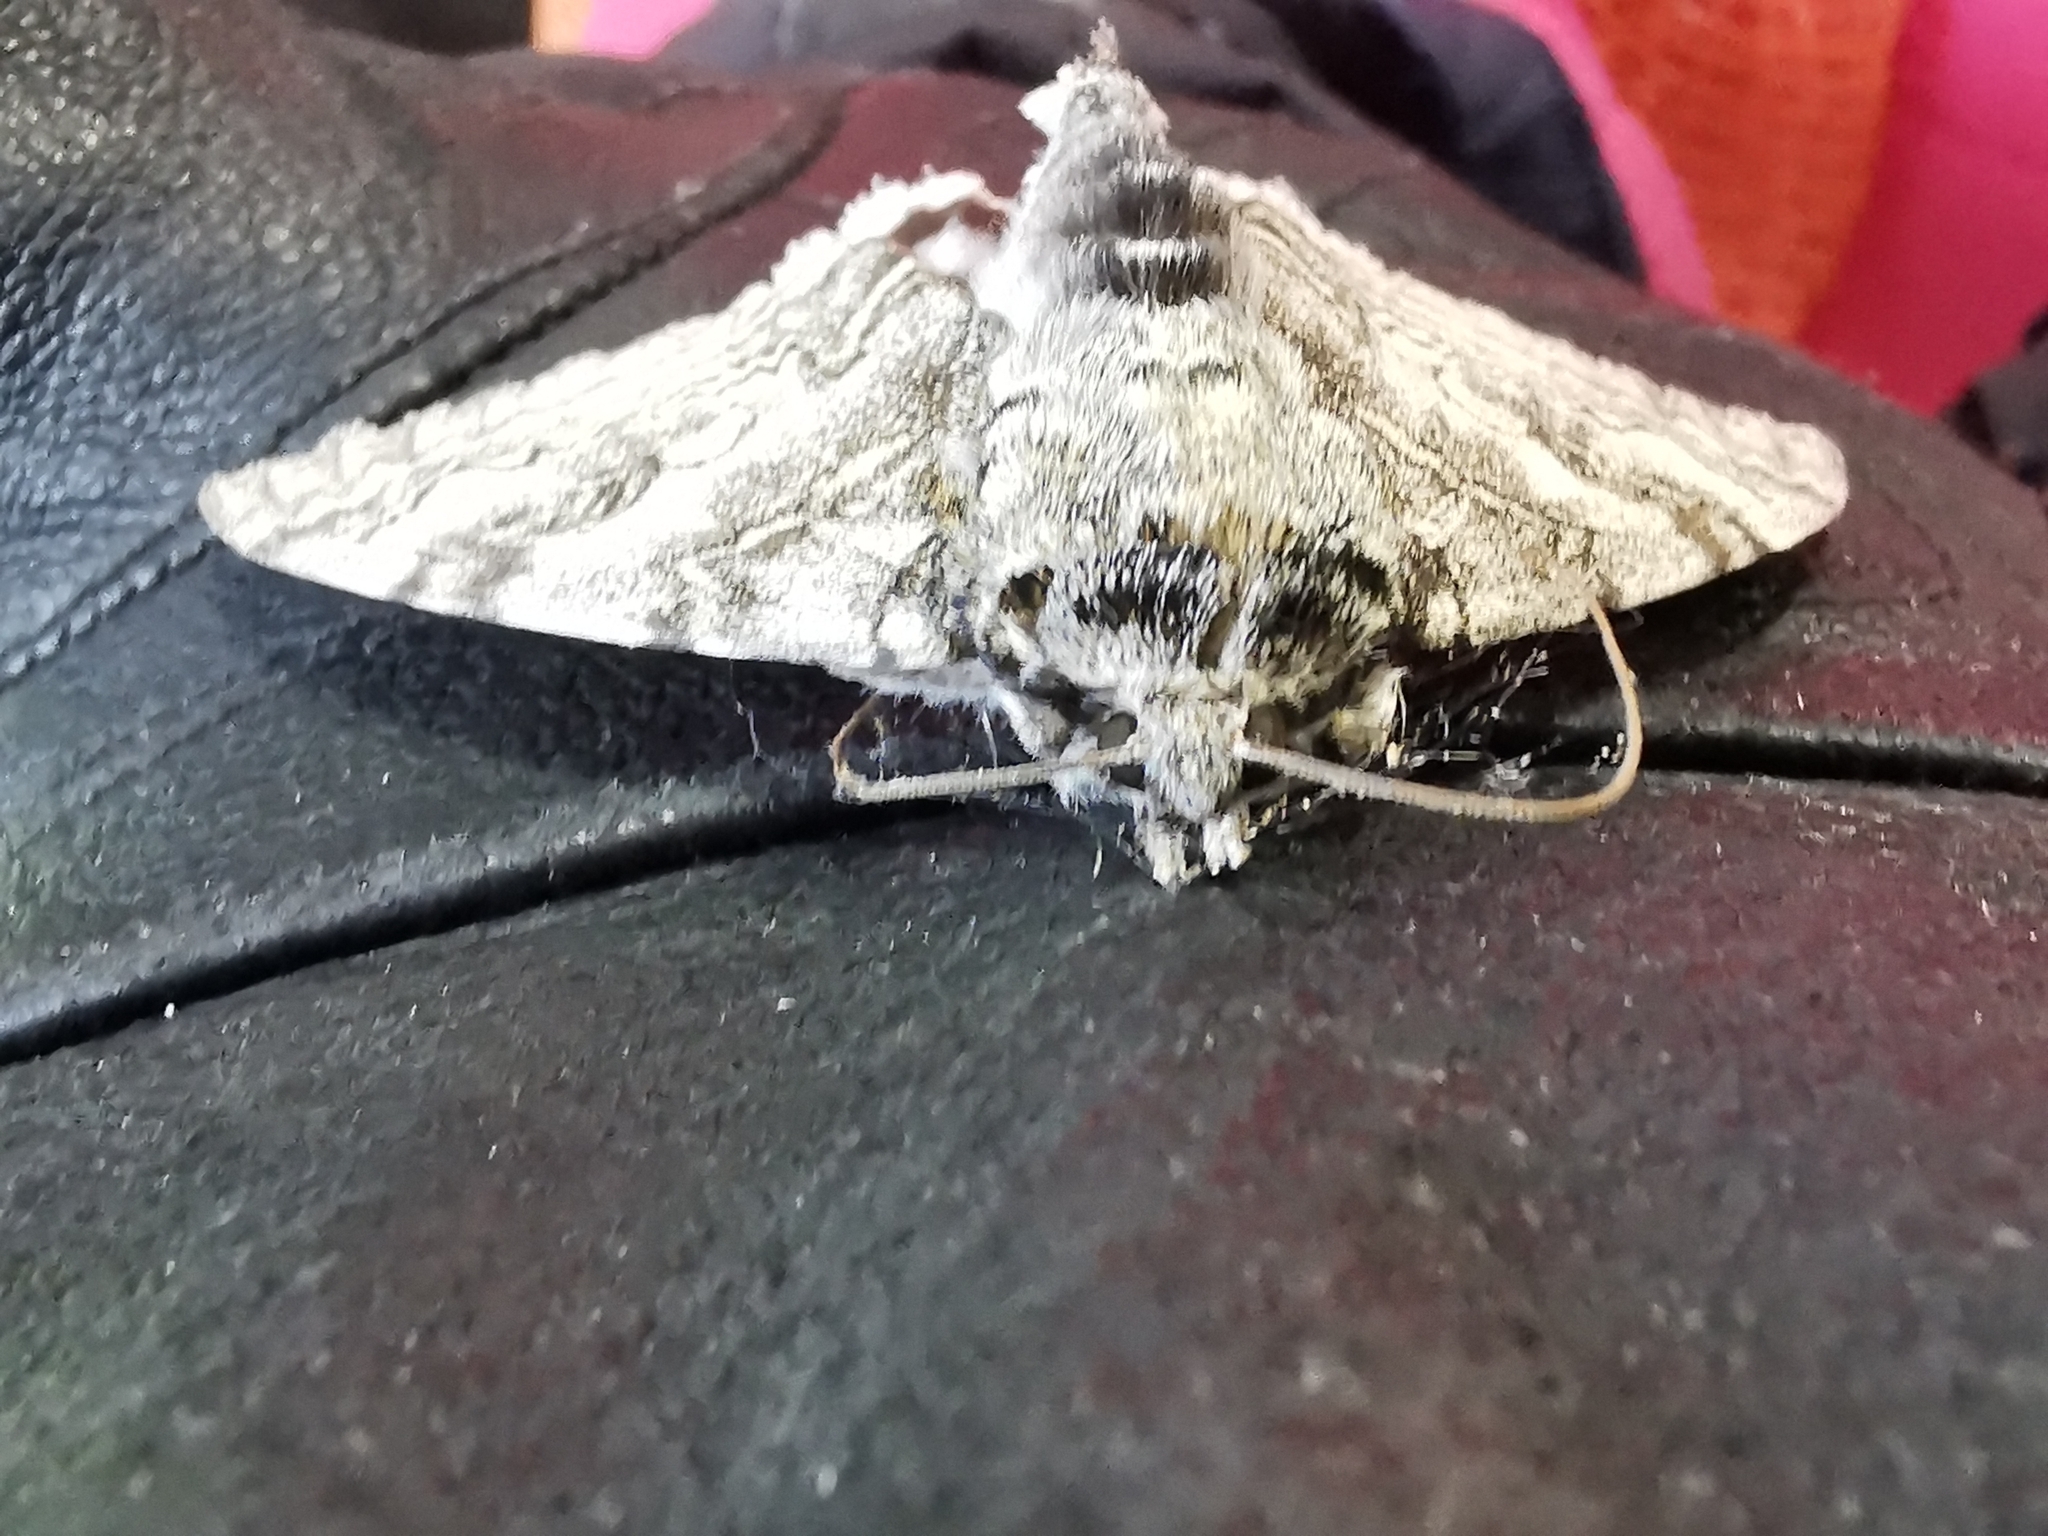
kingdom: Animalia
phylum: Arthropoda
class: Insecta
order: Lepidoptera
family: Erebidae
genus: Catocala
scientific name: Catocala fraxini
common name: Clifden nonpareil
